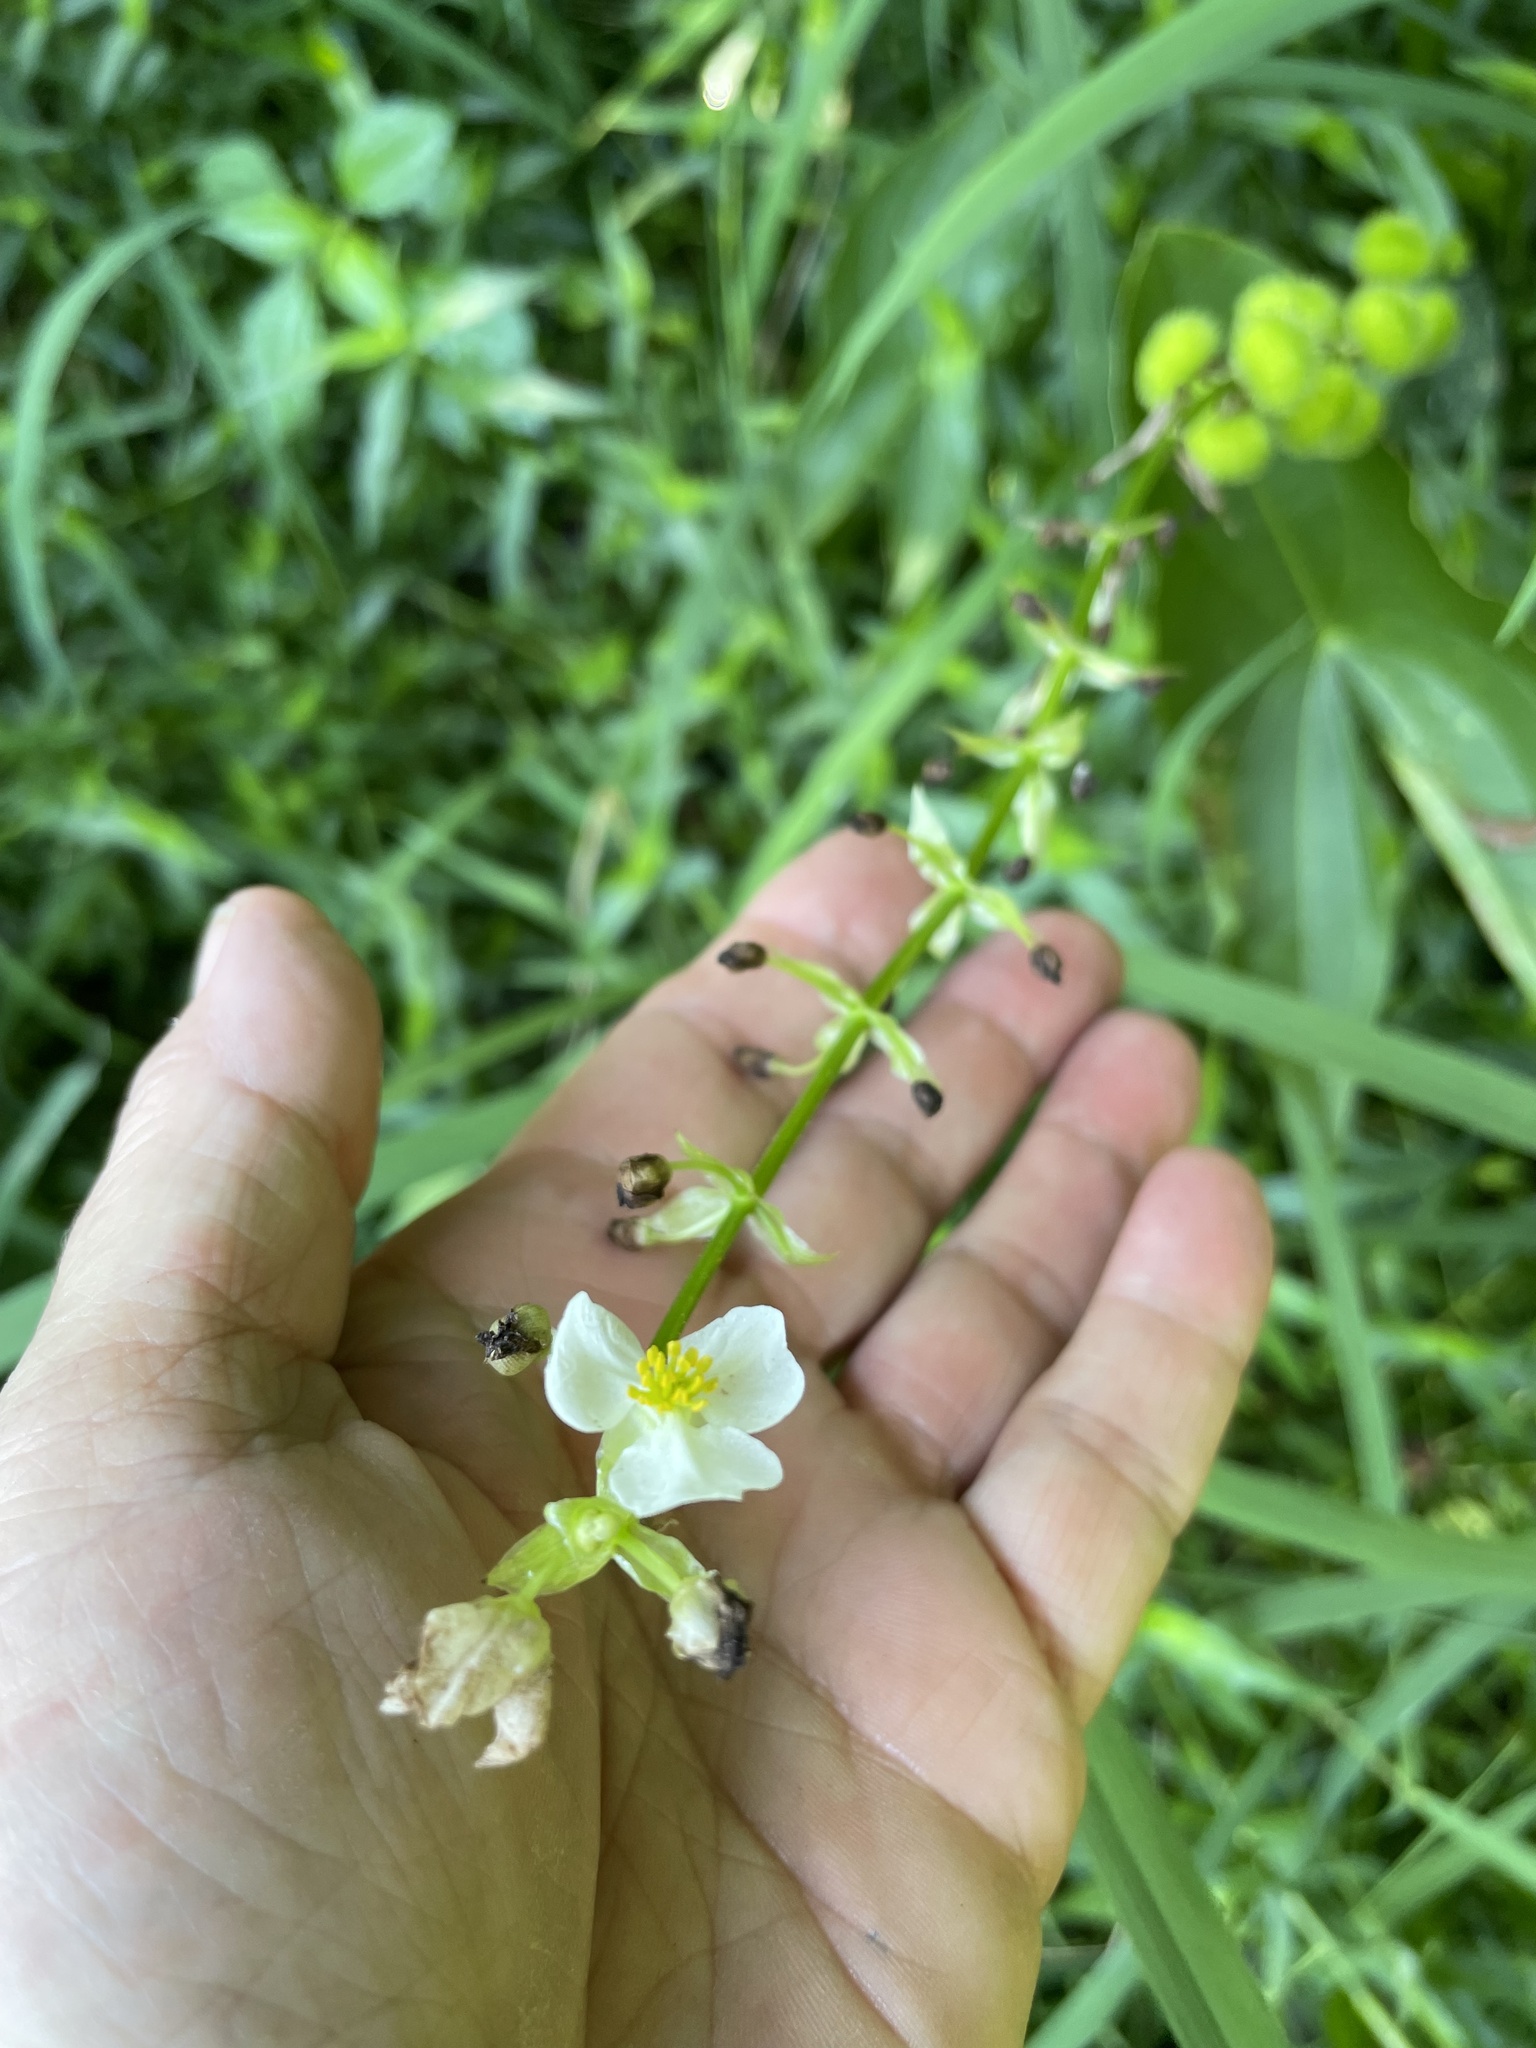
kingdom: Plantae
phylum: Tracheophyta
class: Liliopsida
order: Alismatales
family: Alismataceae
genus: Sagittaria
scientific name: Sagittaria australis
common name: Appalachian arrowhead
